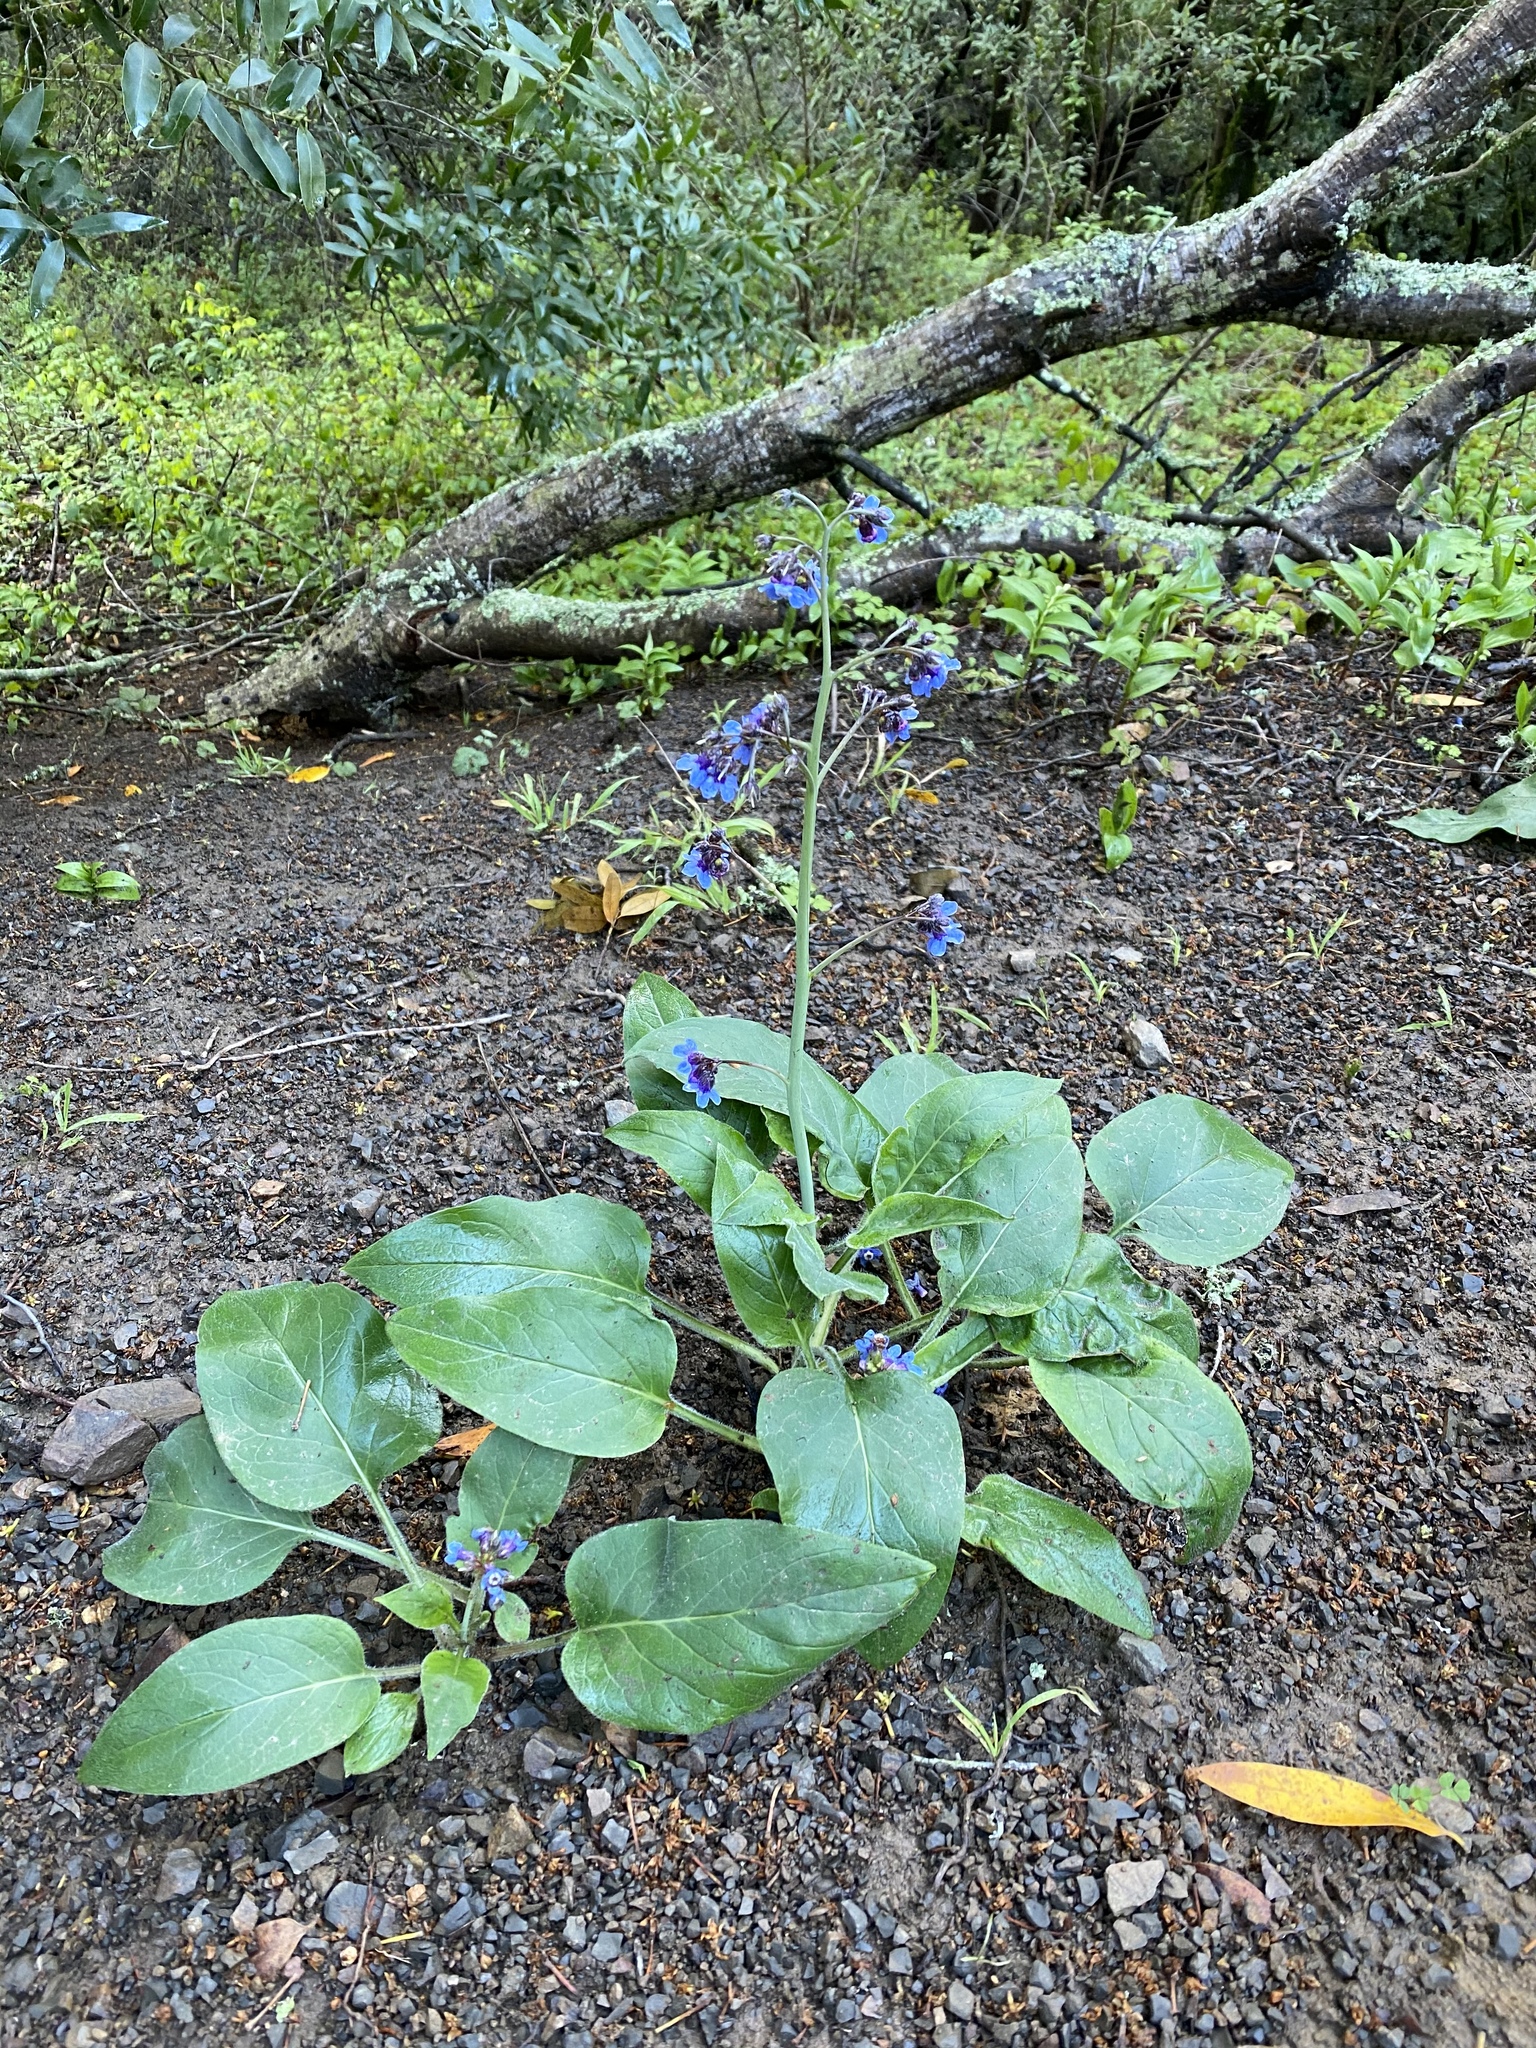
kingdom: Plantae
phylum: Tracheophyta
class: Magnoliopsida
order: Boraginales
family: Boraginaceae
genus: Adelinia
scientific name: Adelinia grande
